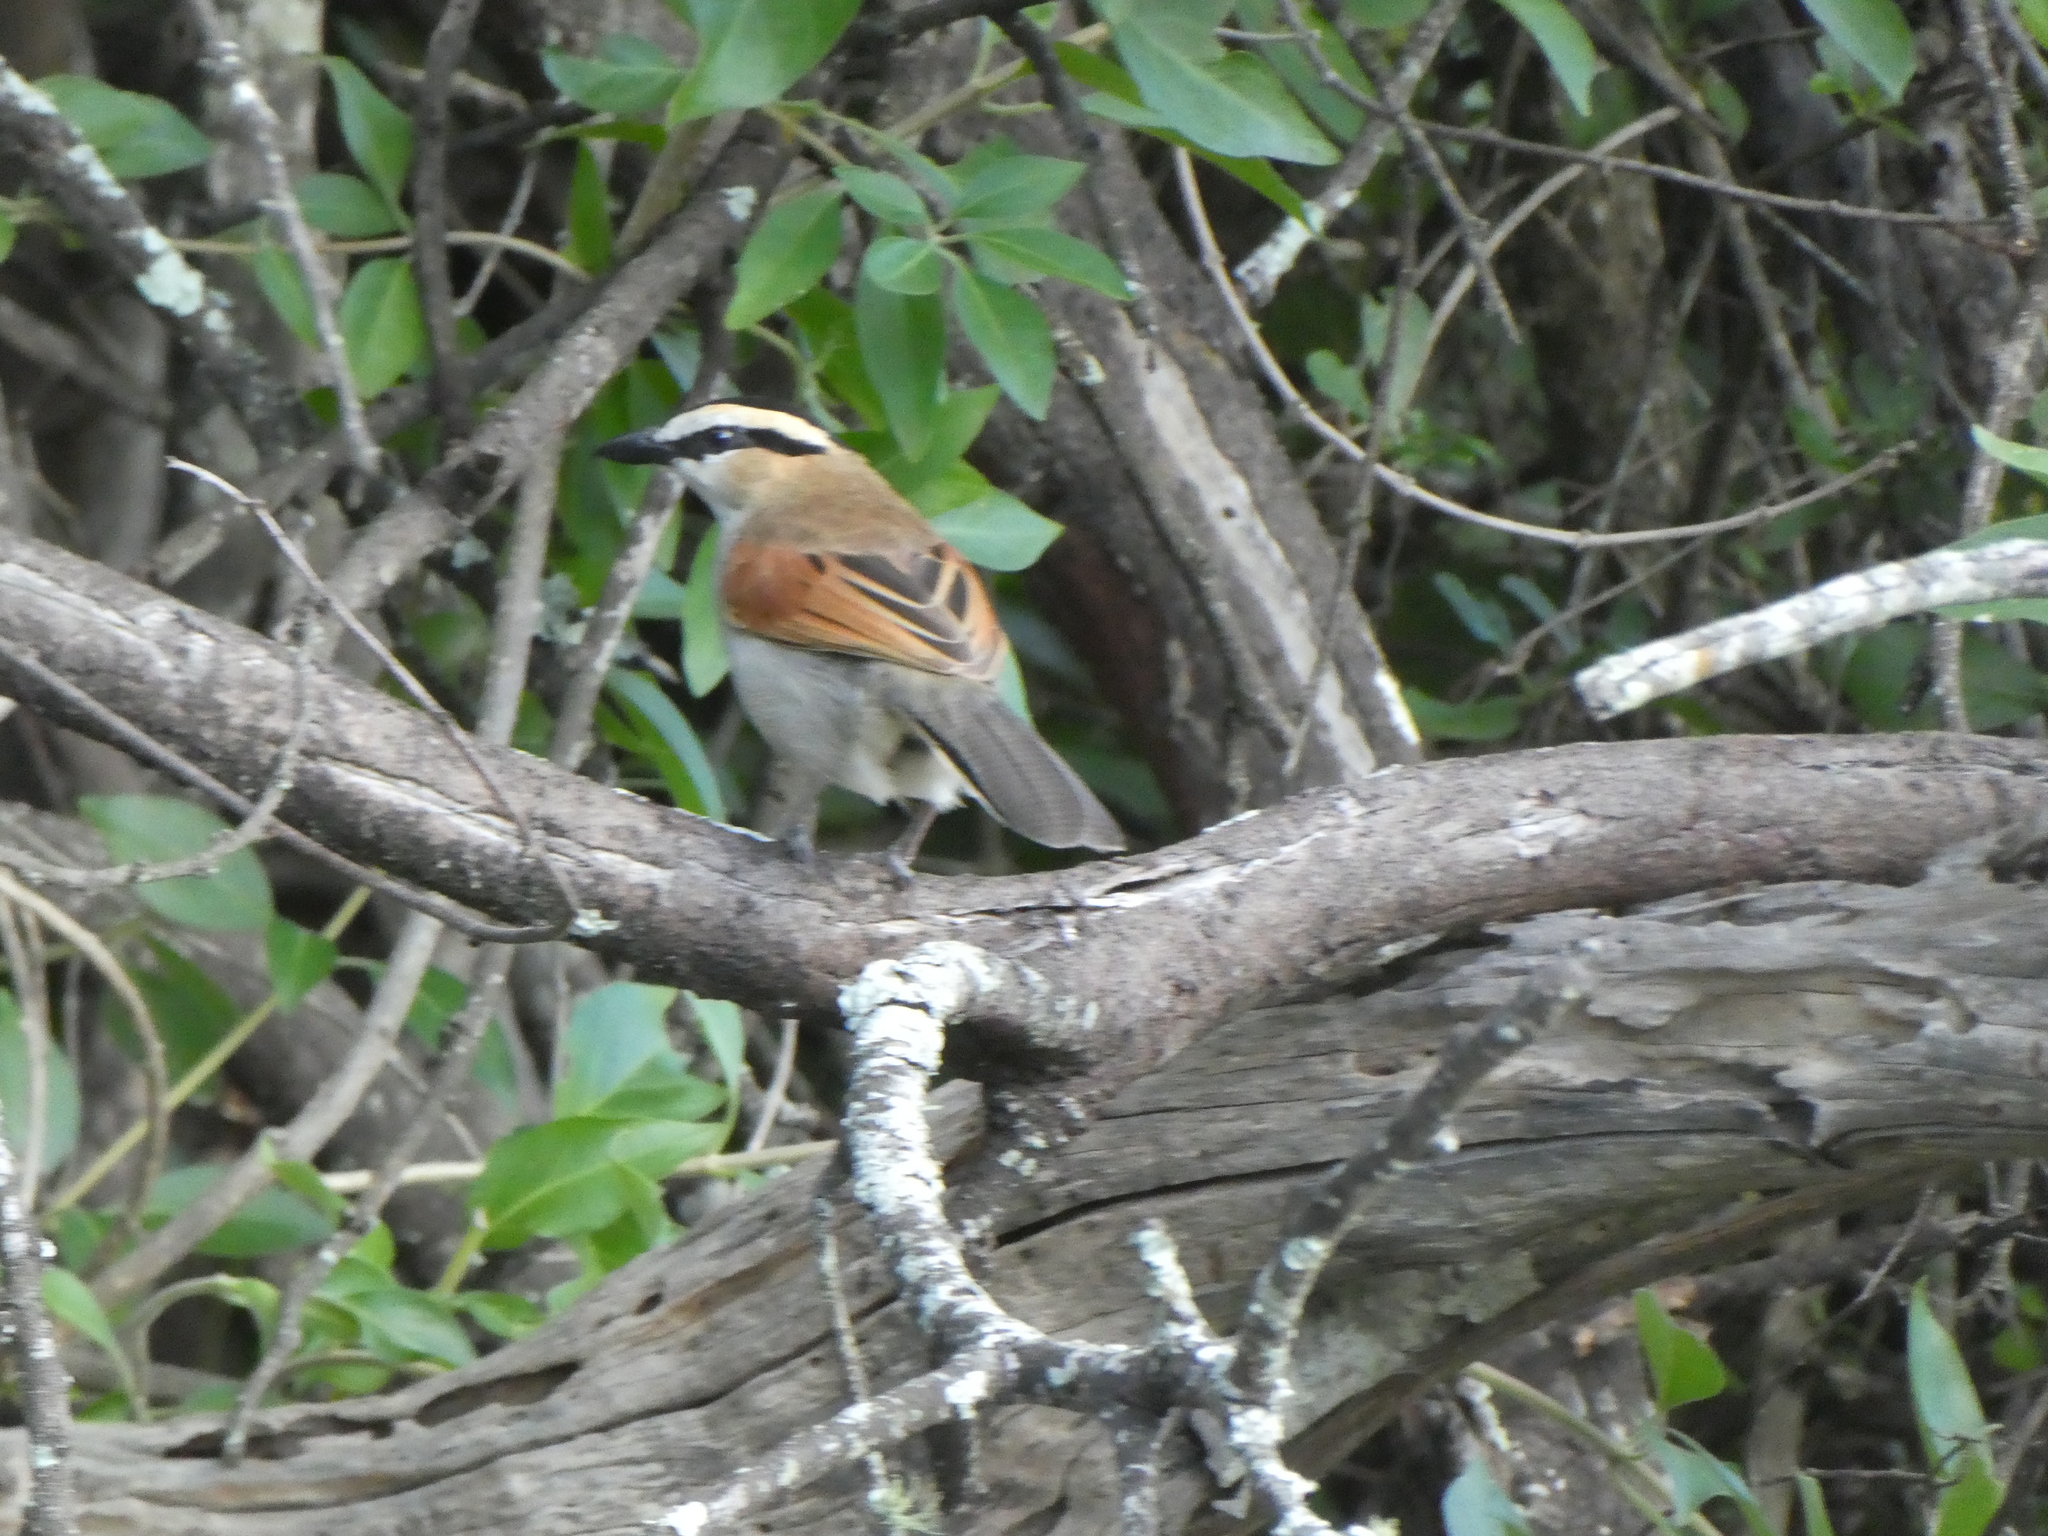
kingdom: Animalia
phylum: Chordata
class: Aves
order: Passeriformes
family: Malaconotidae
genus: Tchagra
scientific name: Tchagra senegalus
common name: Black-crowned tchagra
